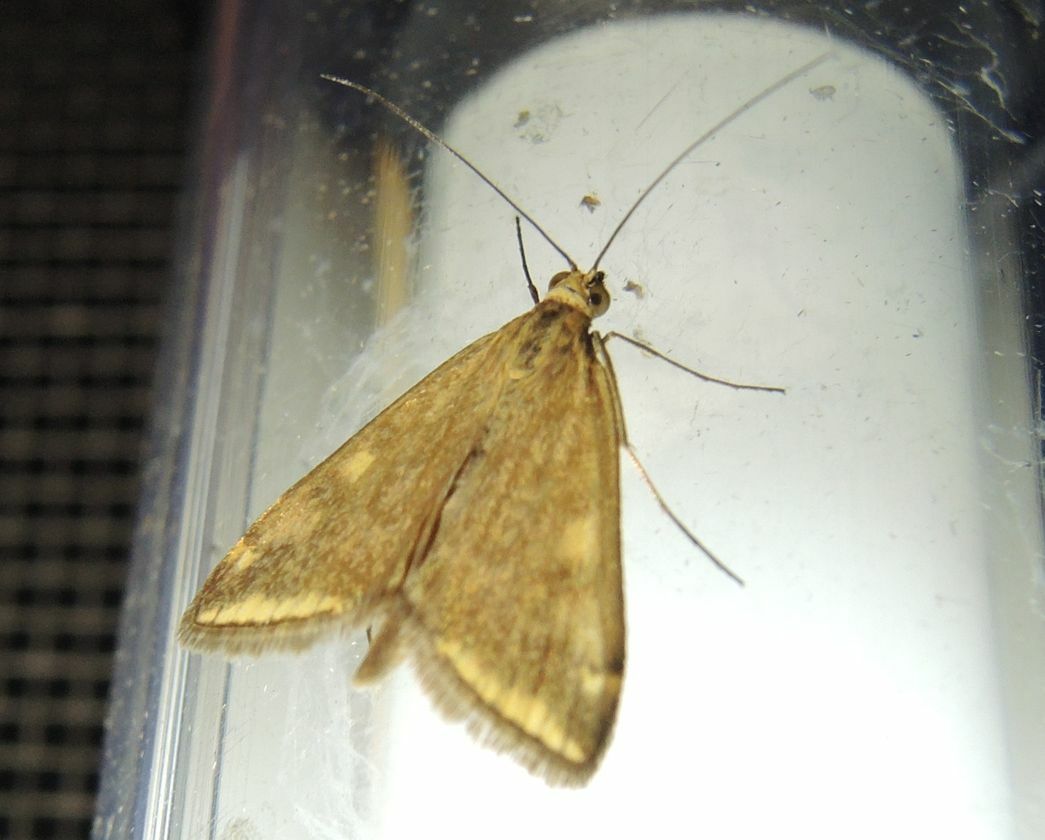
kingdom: Animalia
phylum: Arthropoda
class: Insecta
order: Lepidoptera
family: Crambidae
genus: Loxostege
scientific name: Loxostege sticticalis
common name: Crambid moth
